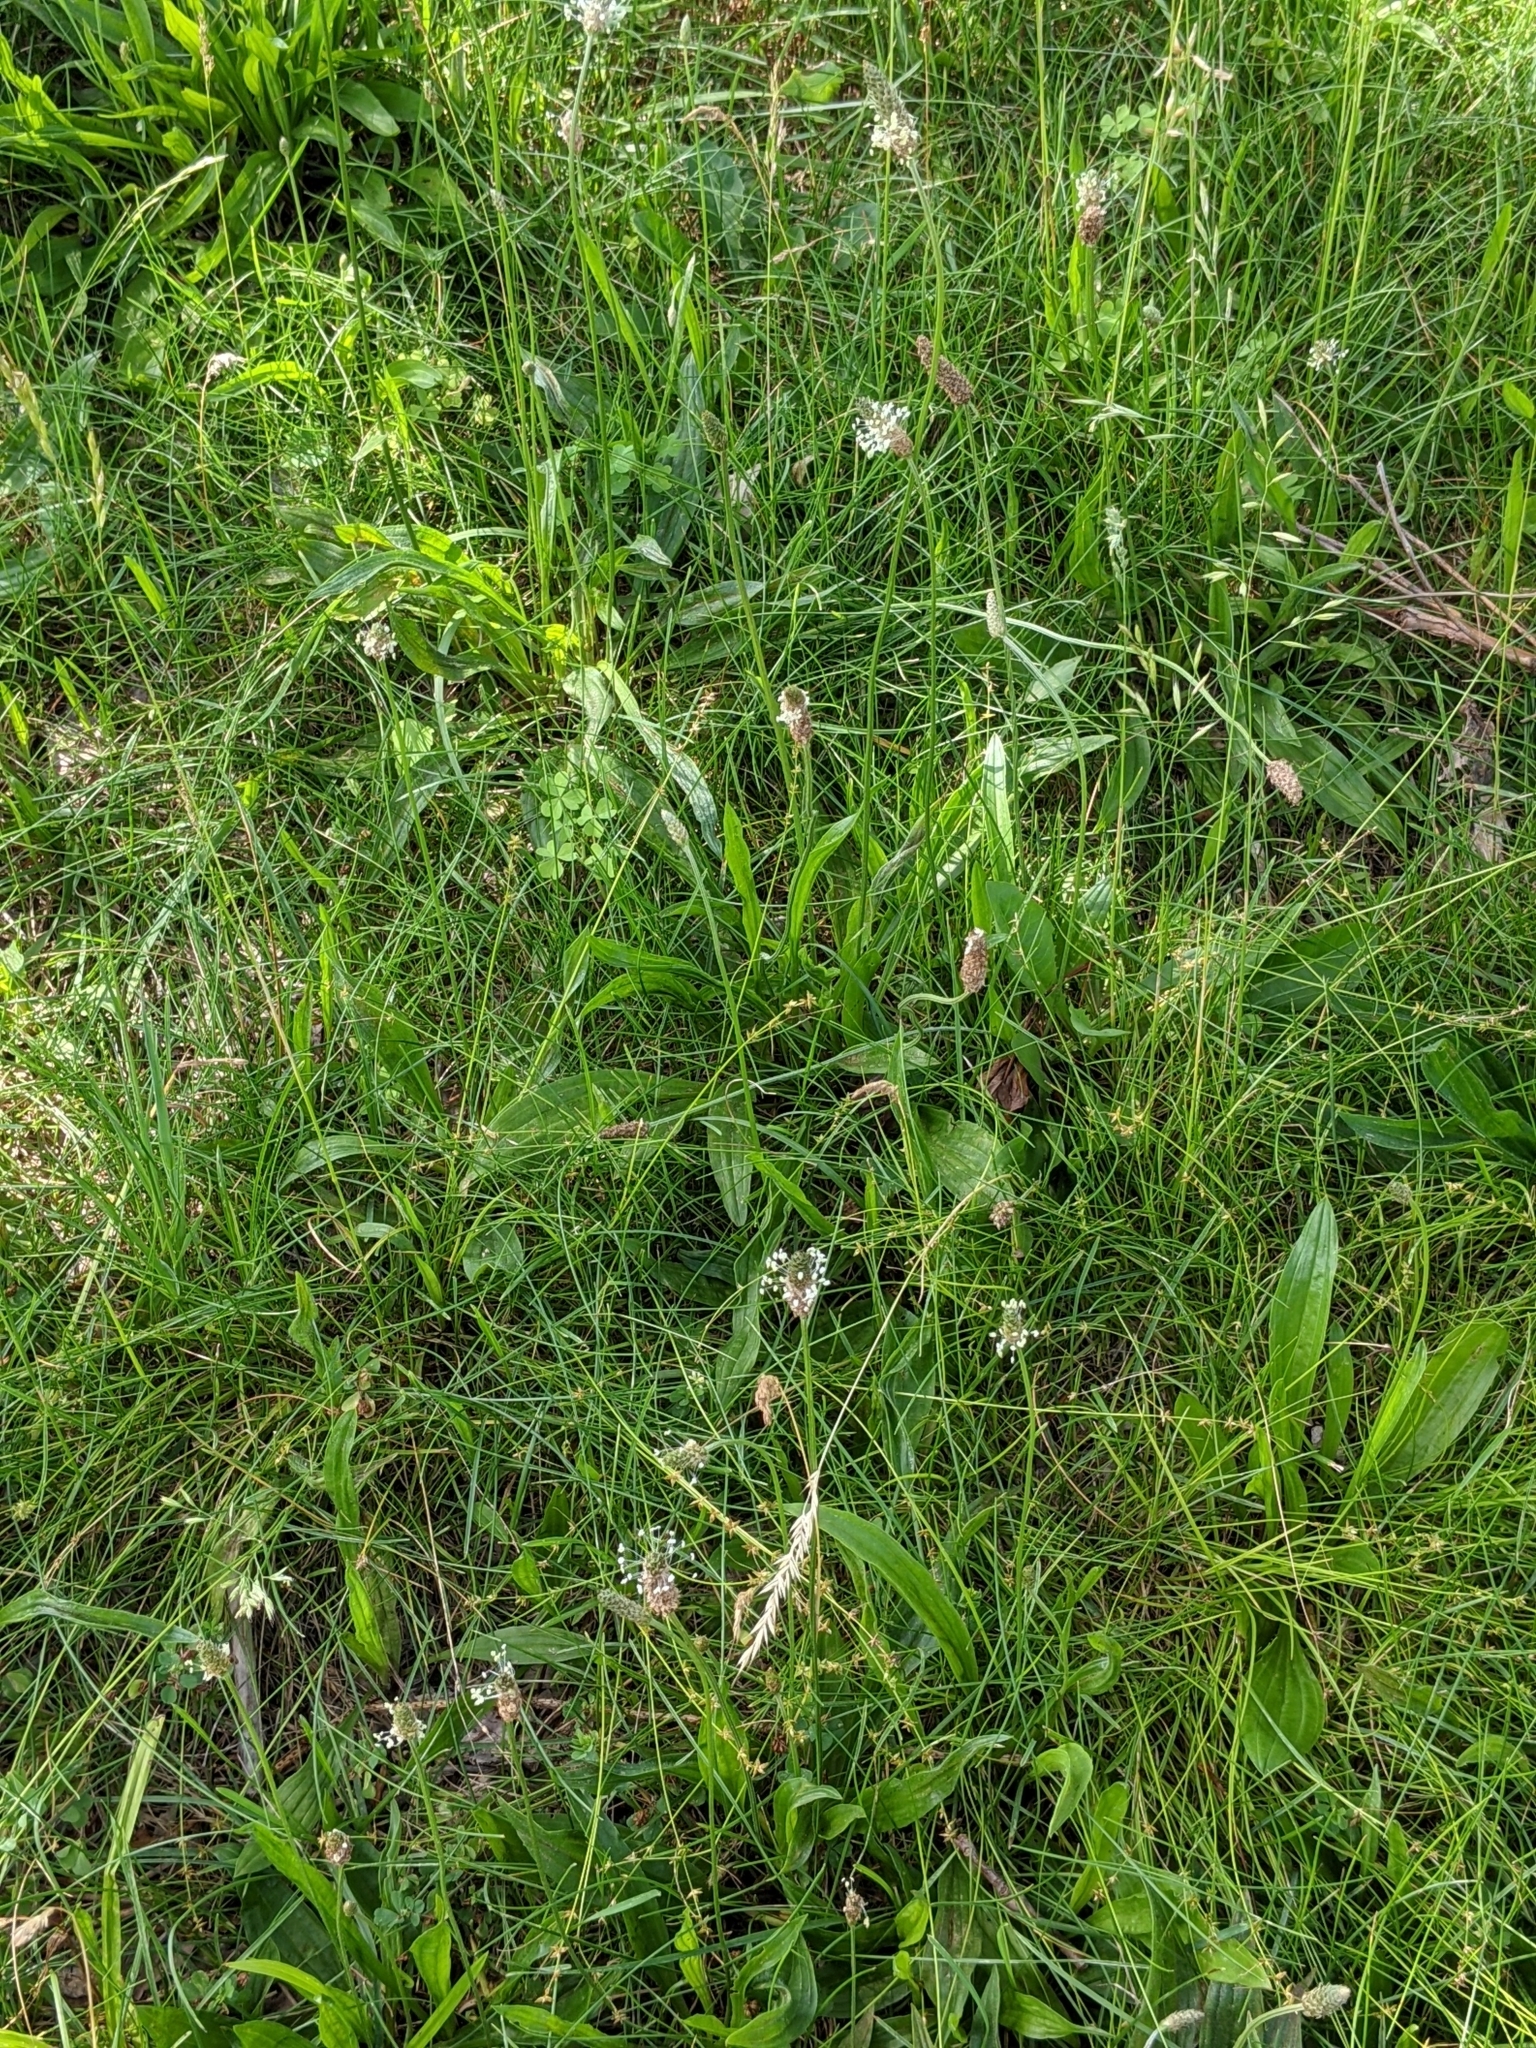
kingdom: Plantae
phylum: Tracheophyta
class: Magnoliopsida
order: Lamiales
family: Plantaginaceae
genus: Plantago
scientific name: Plantago lanceolata
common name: Ribwort plantain
